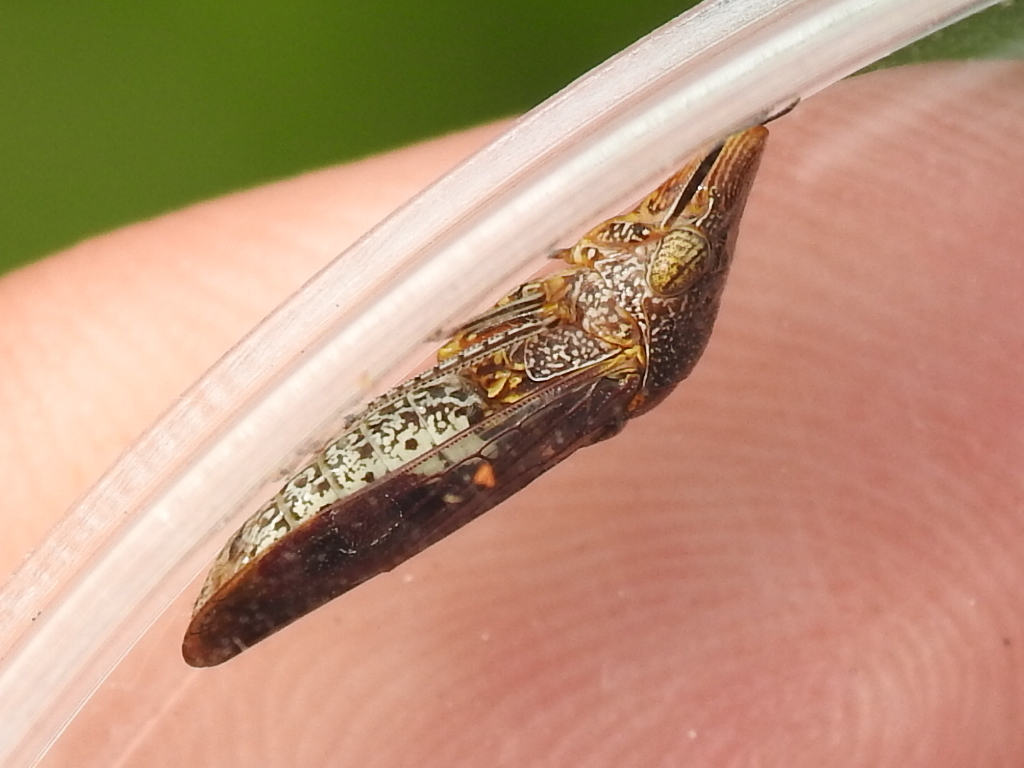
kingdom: Animalia
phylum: Arthropoda
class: Insecta
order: Hemiptera
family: Cicadellidae
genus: Homalodisca
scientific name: Homalodisca vitripennis
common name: Glassy-winged sharpshooter
